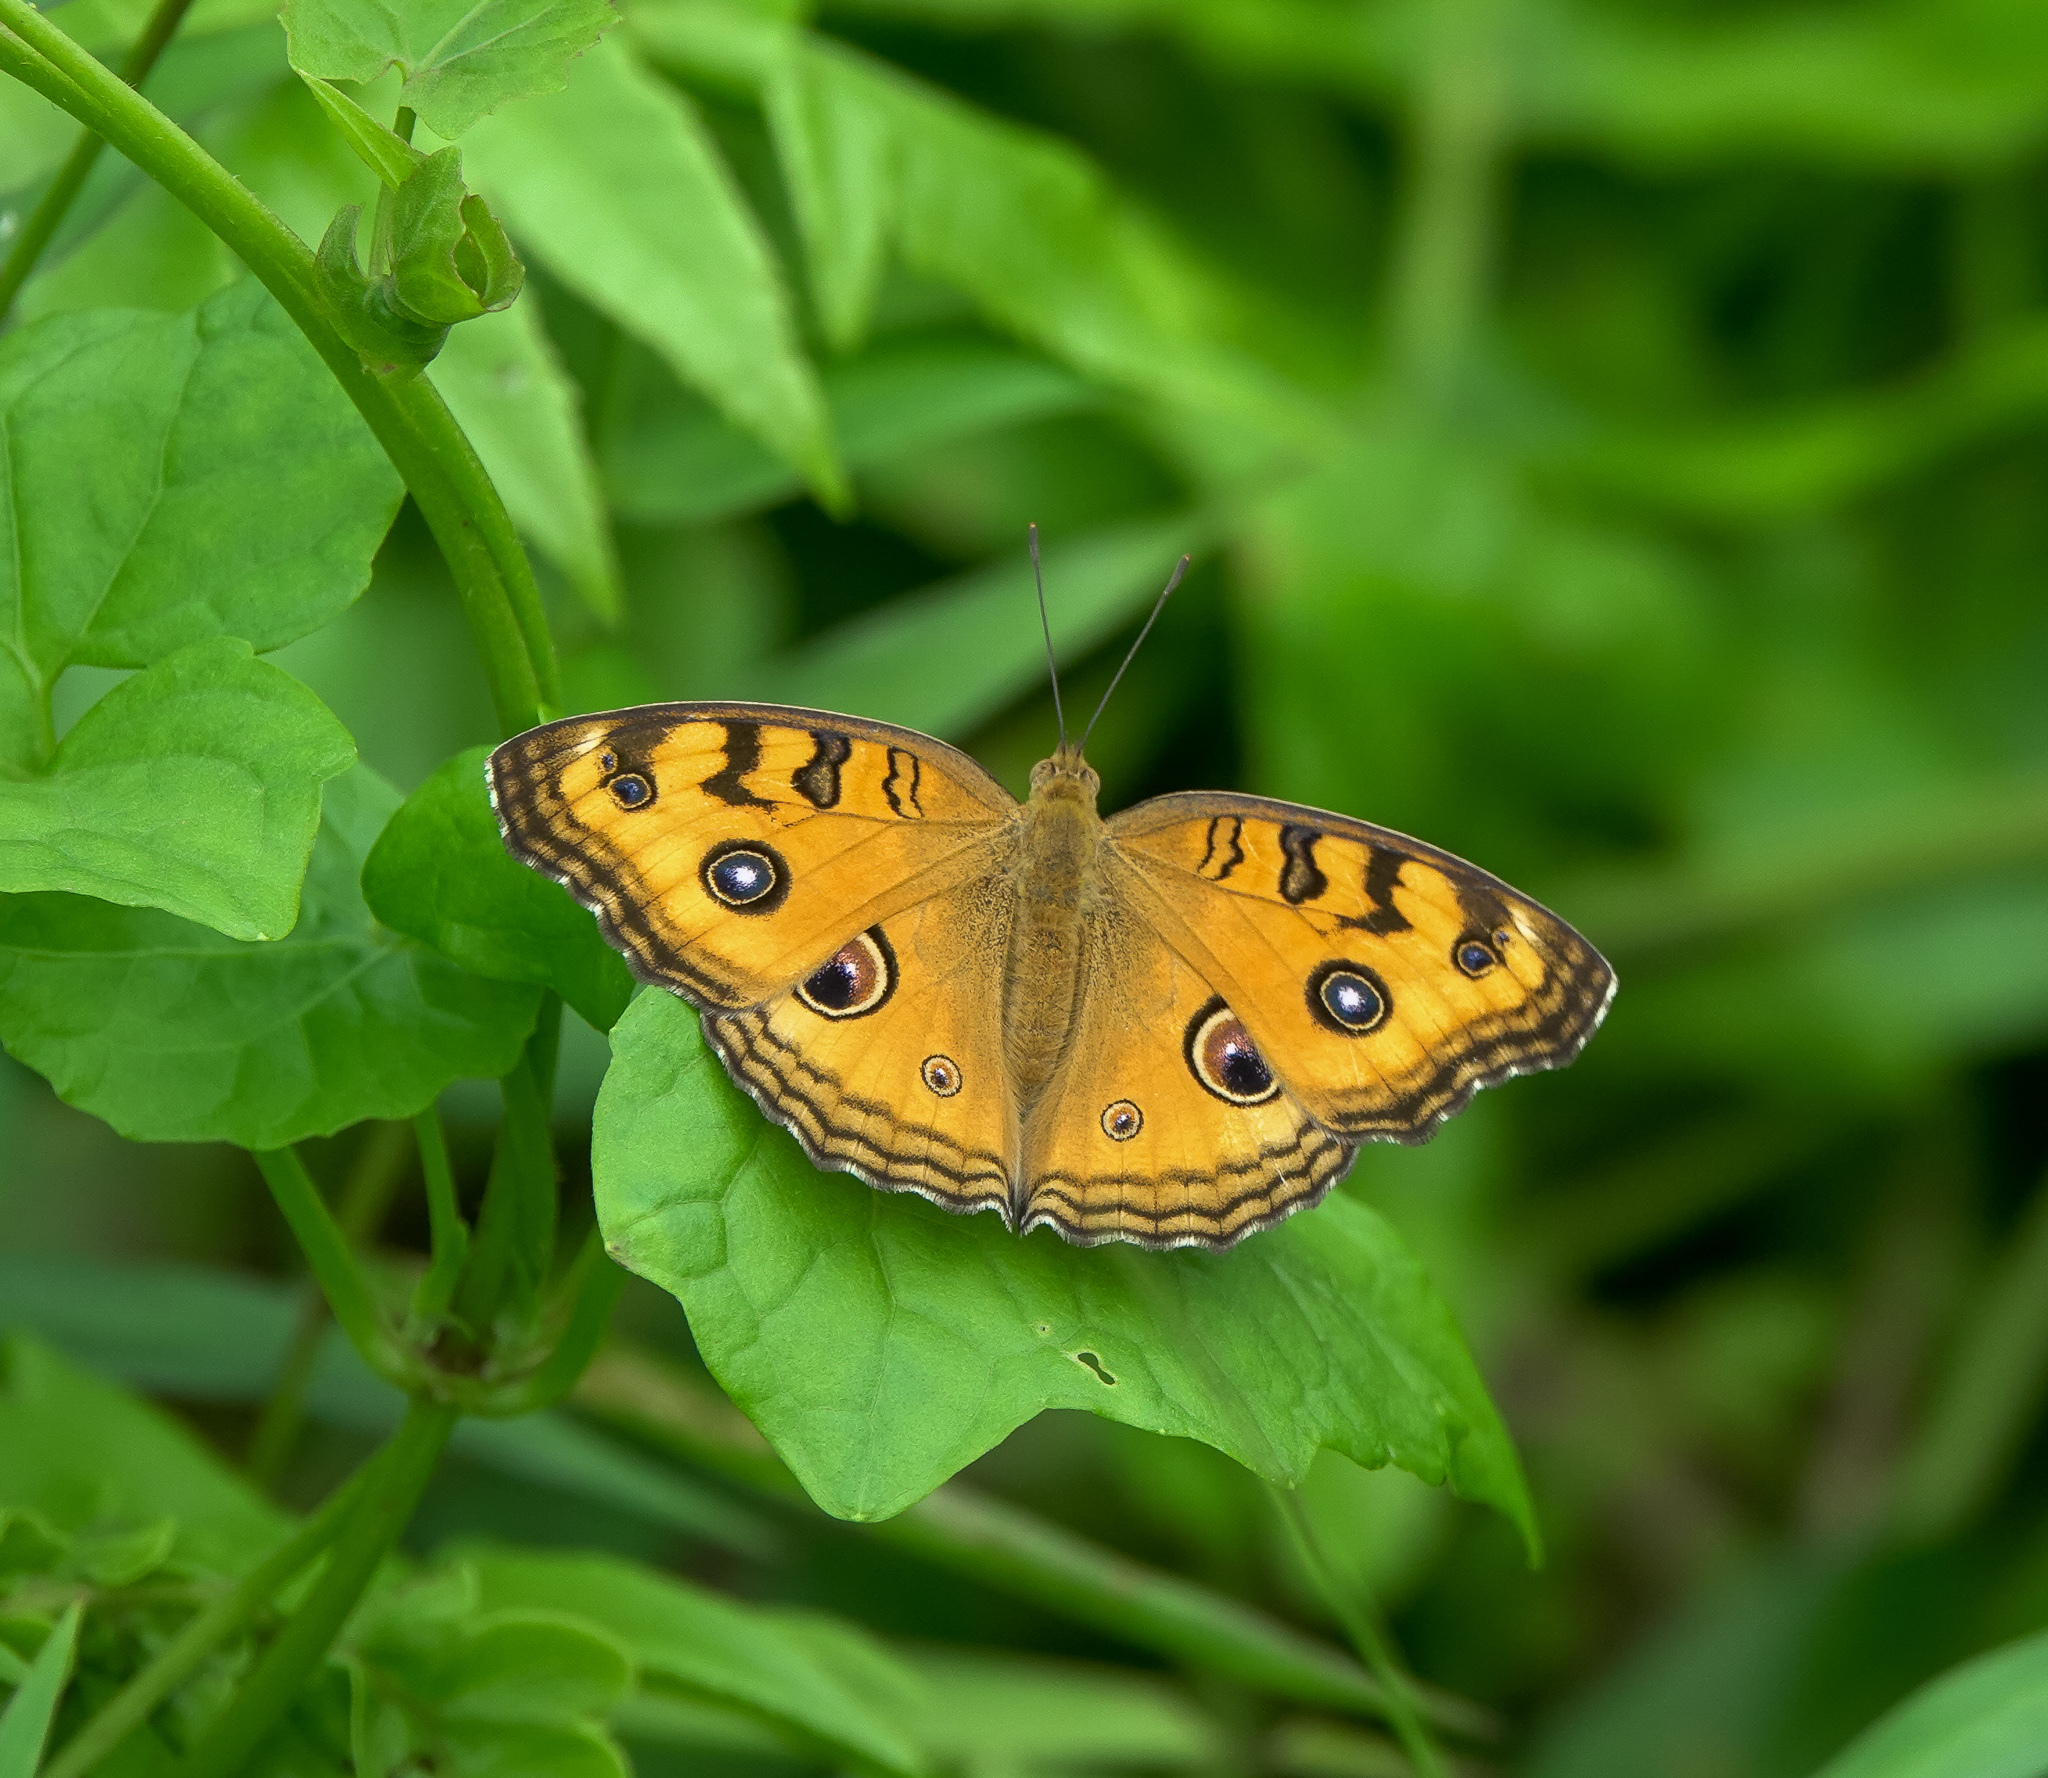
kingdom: Animalia
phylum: Arthropoda
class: Insecta
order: Lepidoptera
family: Nymphalidae
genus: Junonia
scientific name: Junonia almana
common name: Peacock pansy
